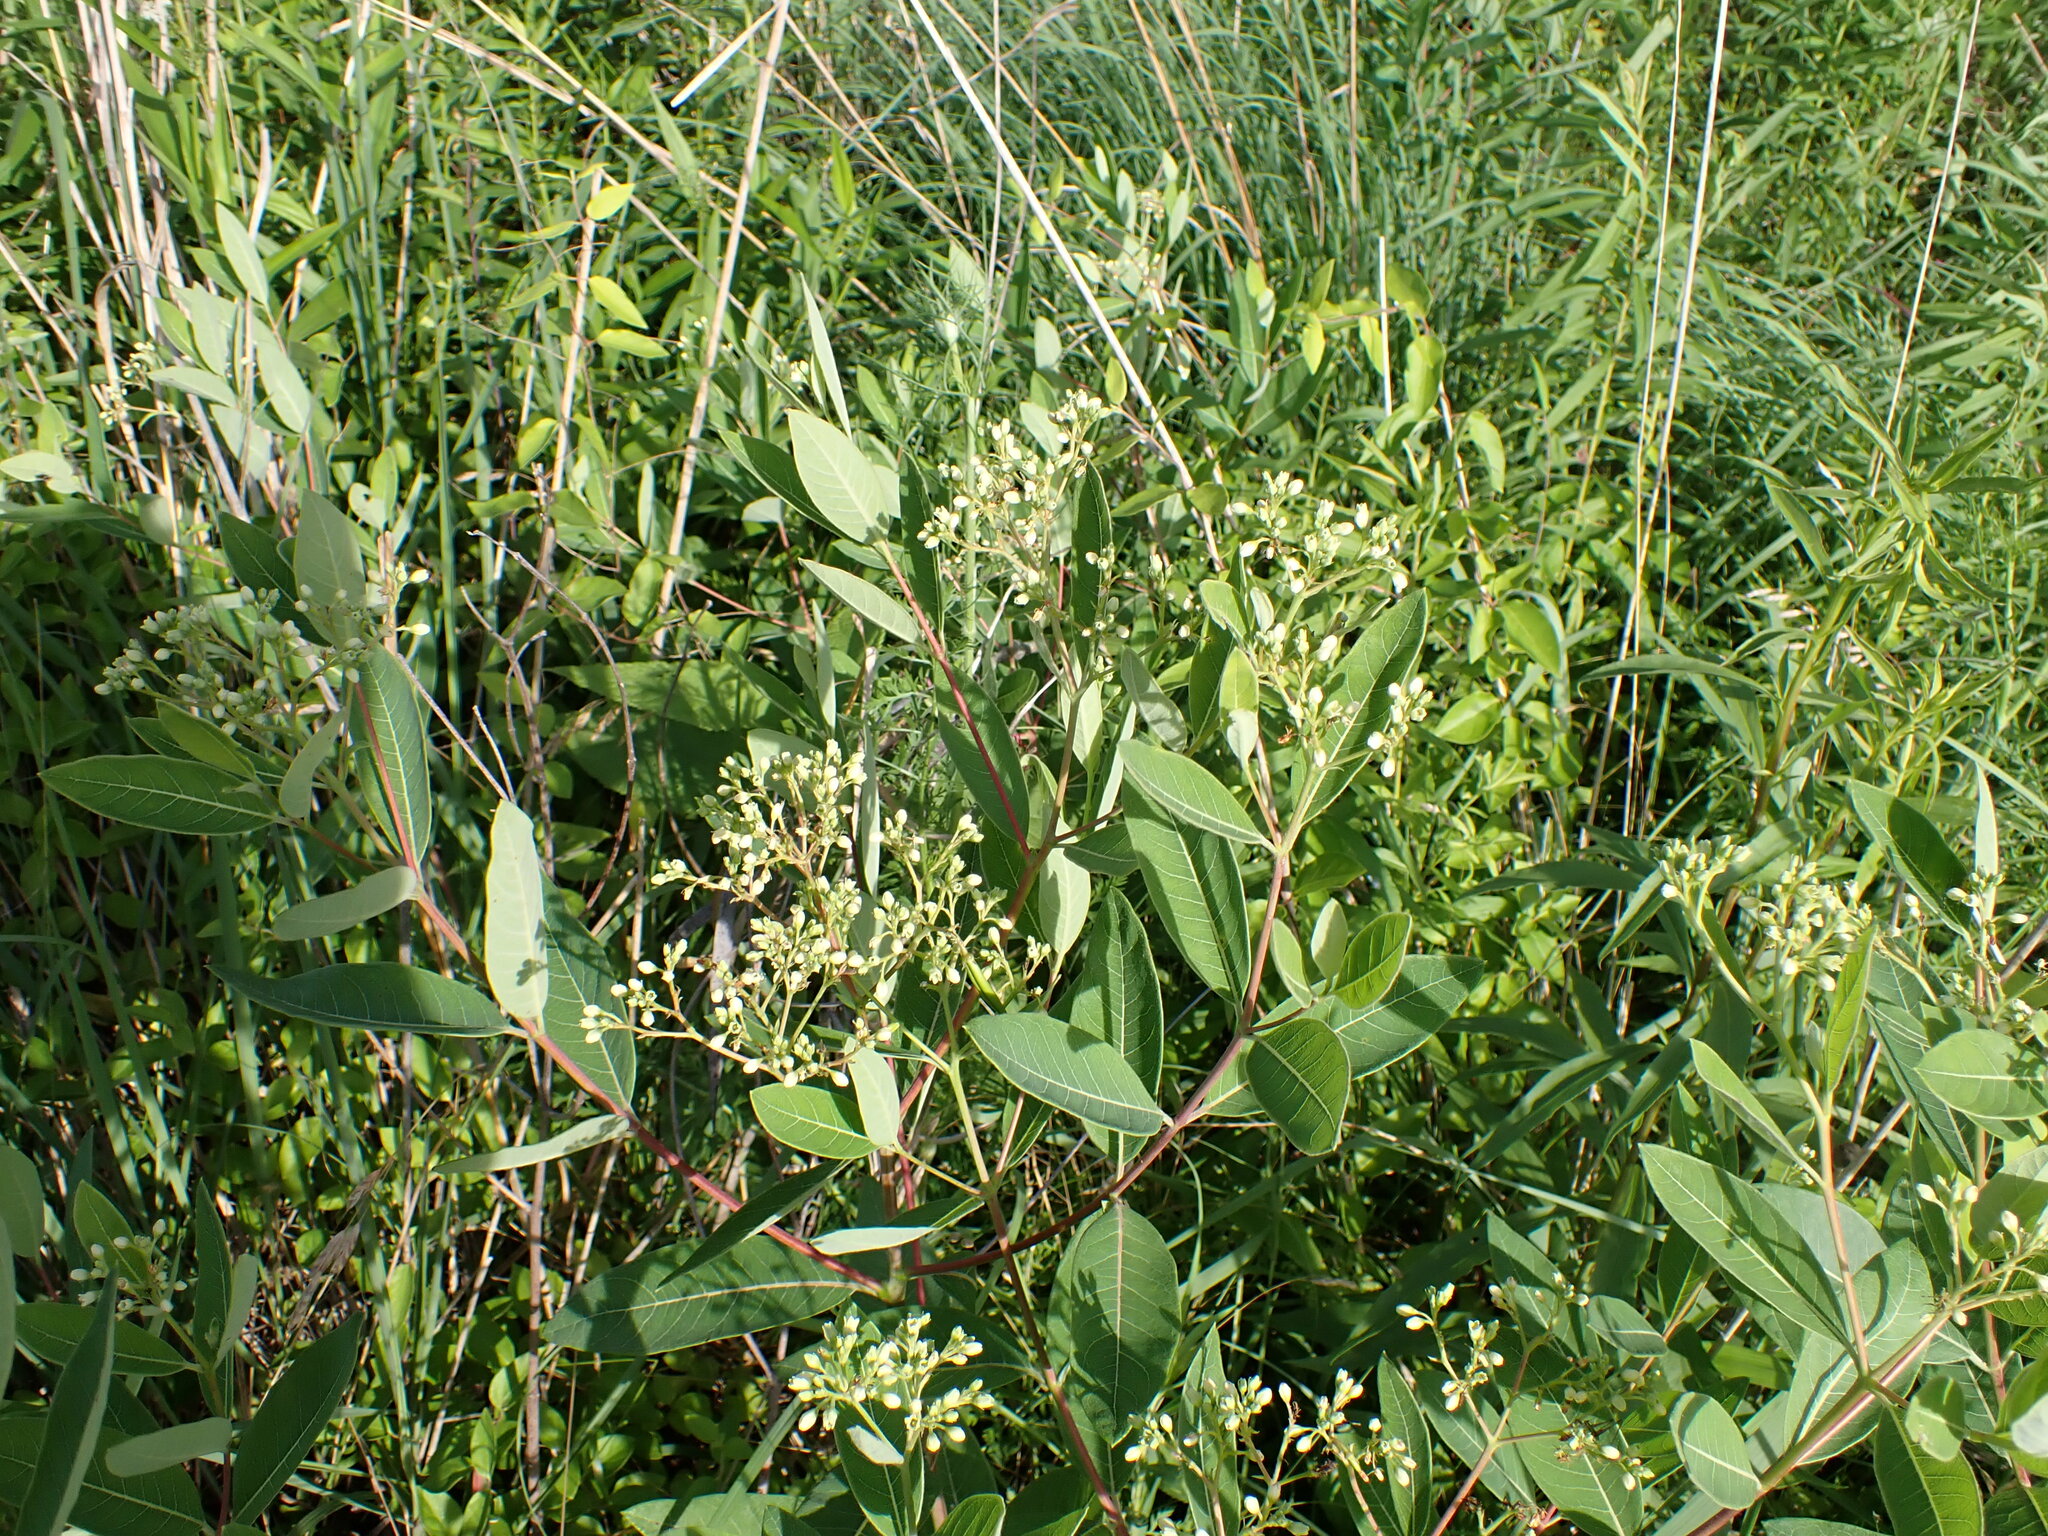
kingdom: Plantae
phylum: Tracheophyta
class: Magnoliopsida
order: Gentianales
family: Apocynaceae
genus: Apocynum
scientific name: Apocynum cannabinum
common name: Hemp dogbane
